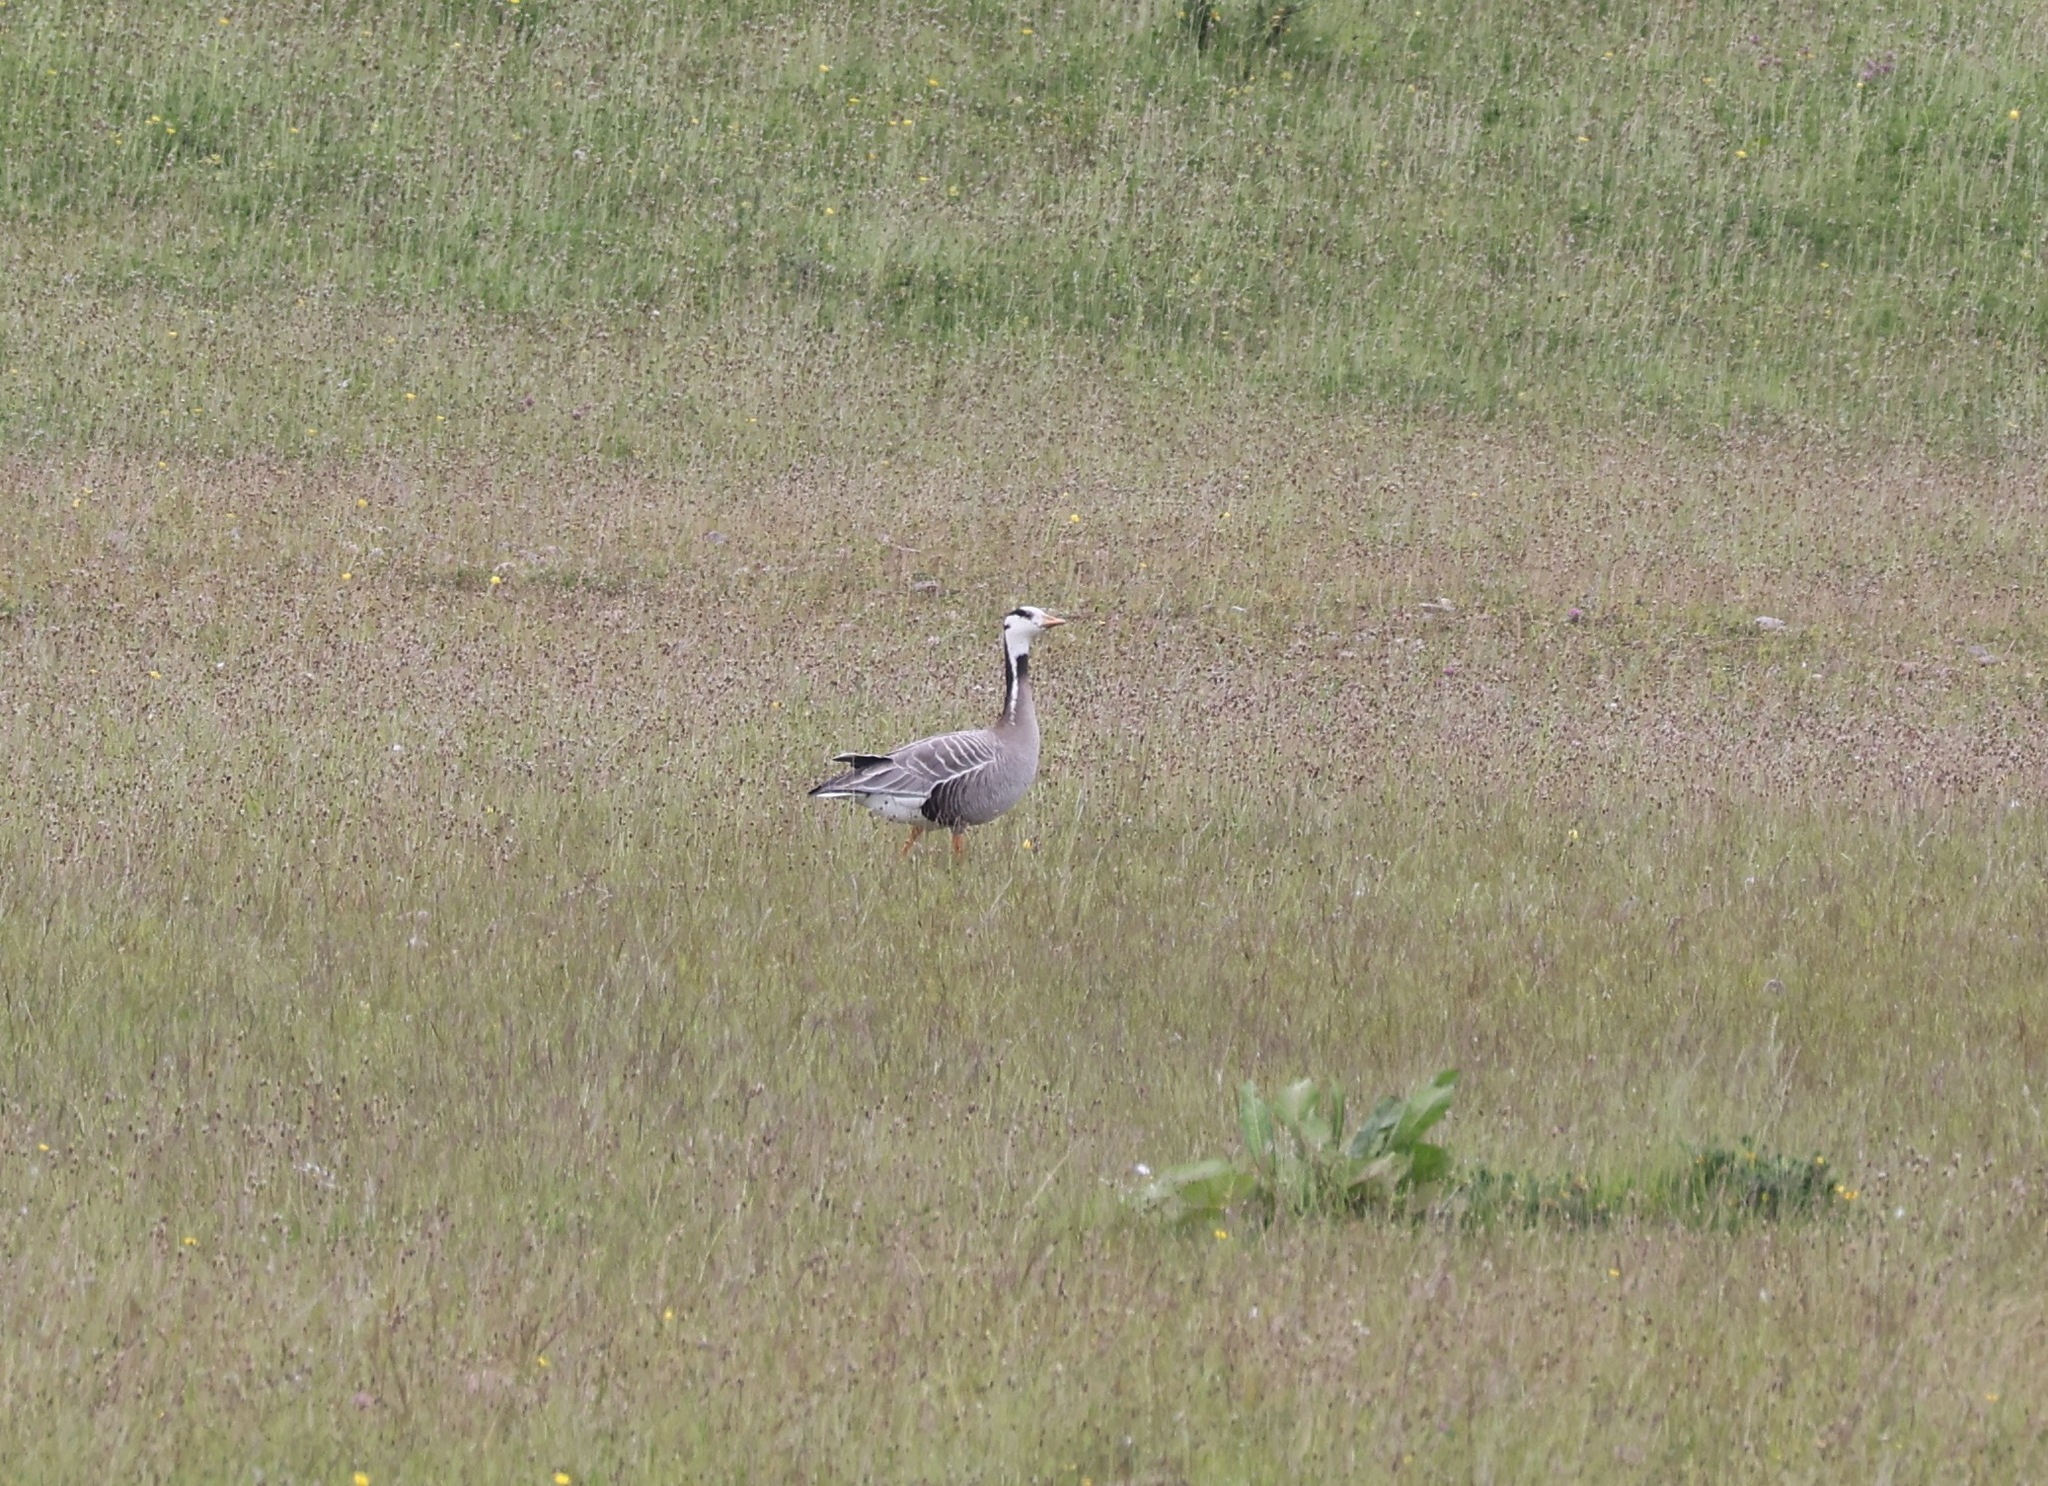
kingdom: Animalia
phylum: Chordata
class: Aves
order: Anseriformes
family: Anatidae
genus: Anser
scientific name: Anser indicus
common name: Bar-headed goose
